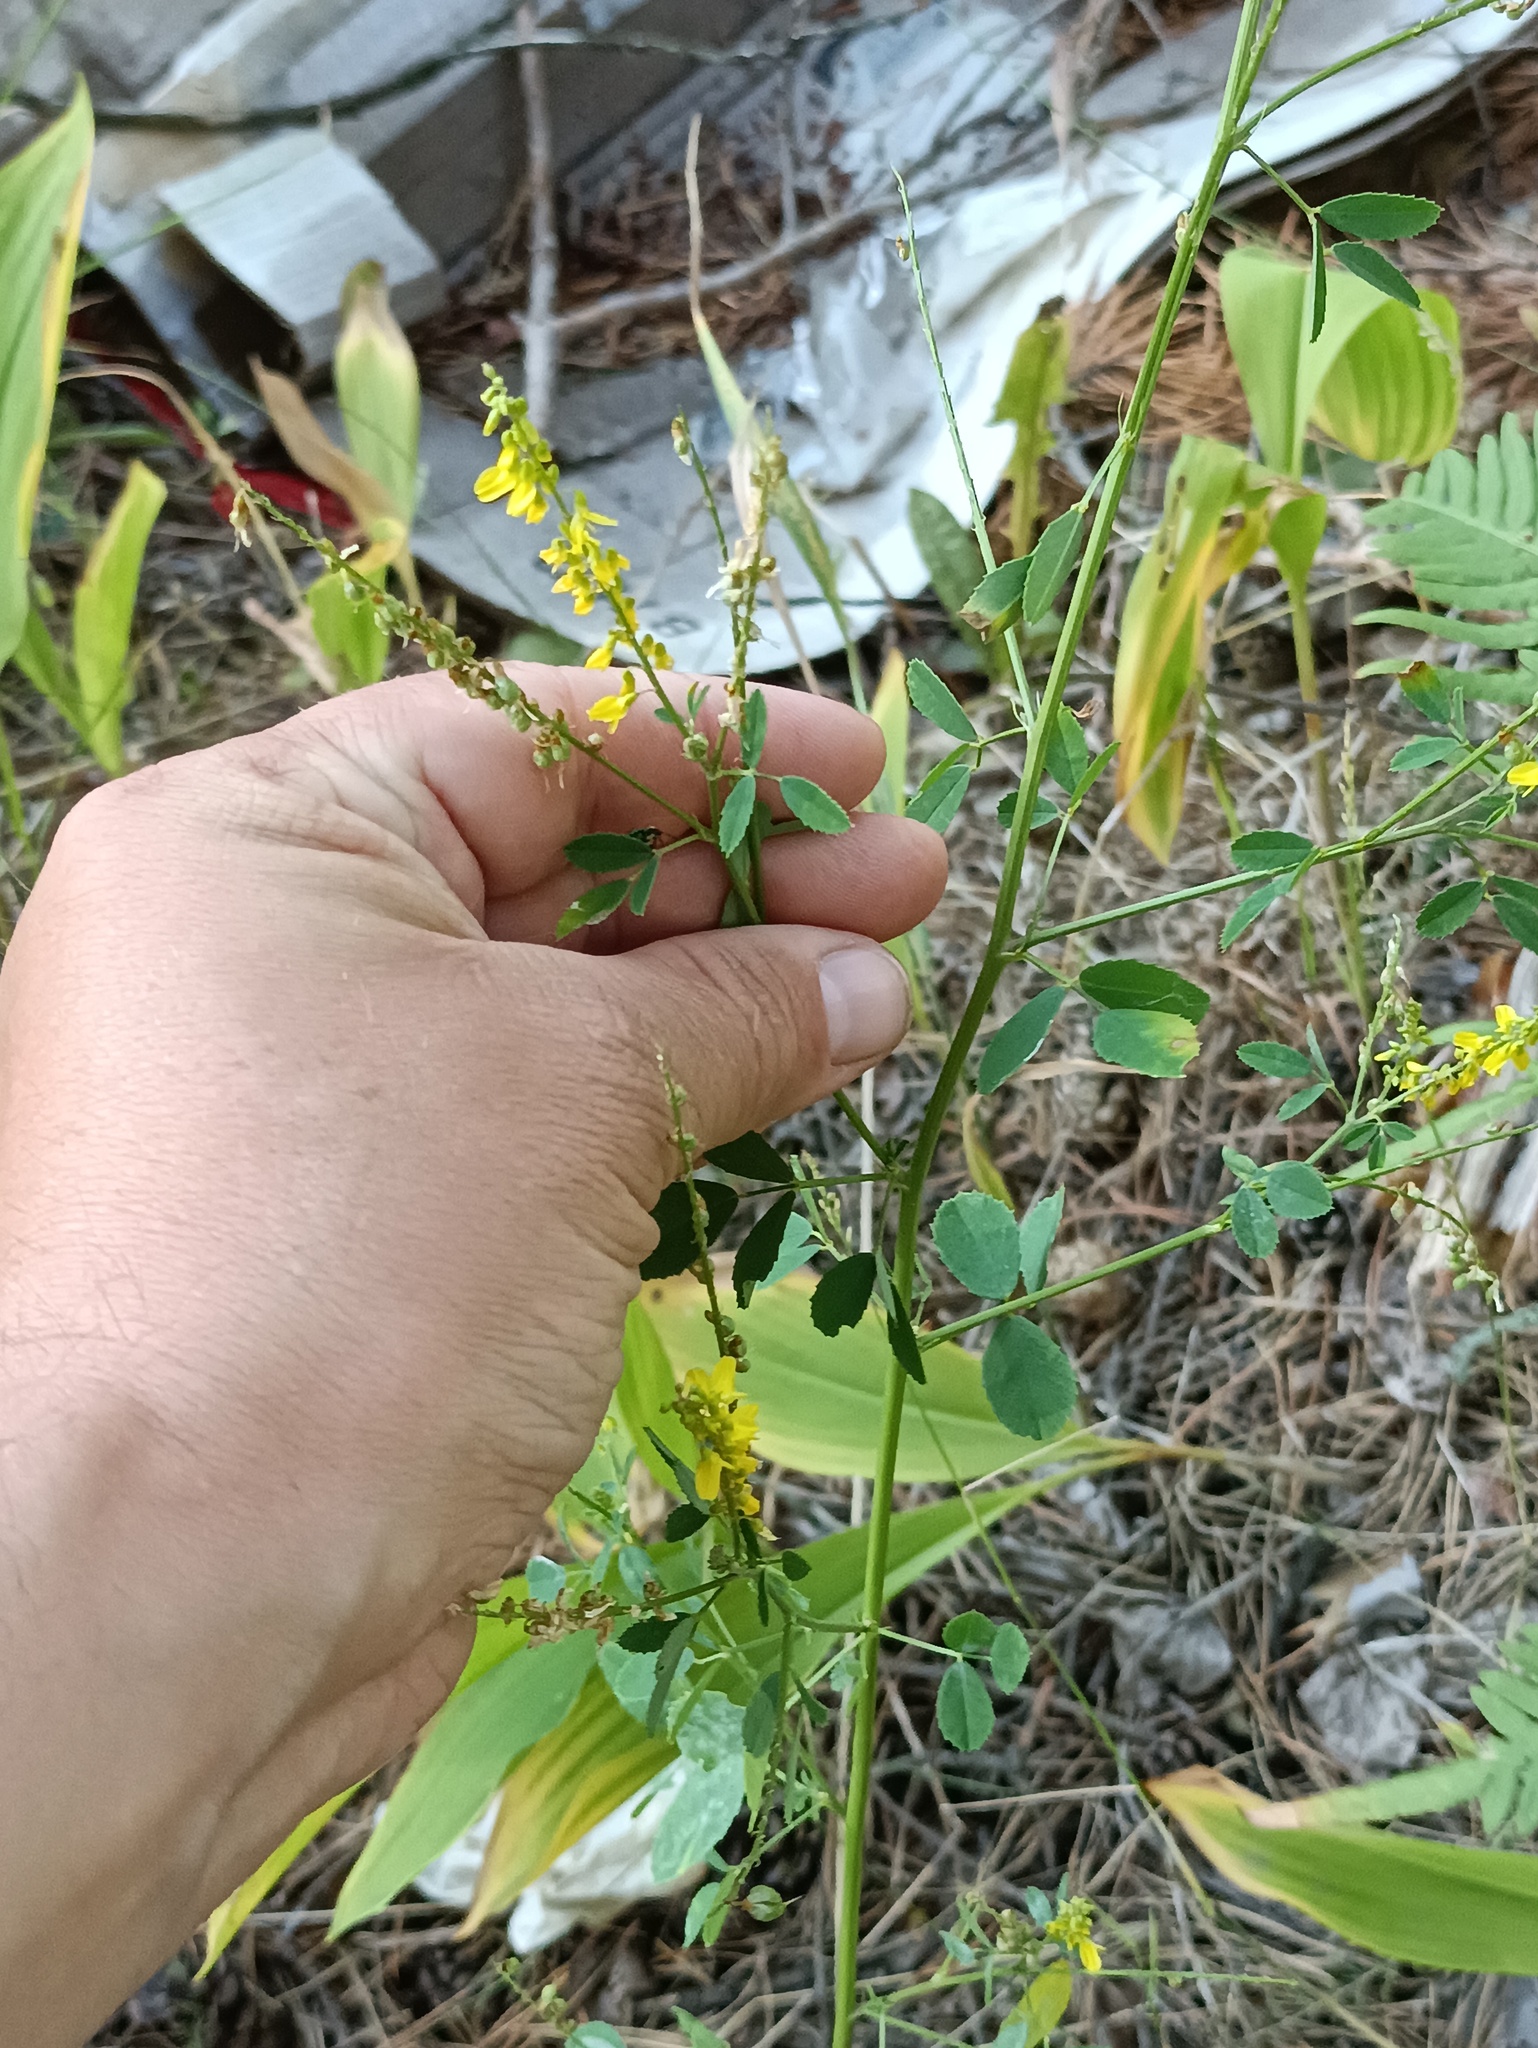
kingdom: Plantae
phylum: Tracheophyta
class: Magnoliopsida
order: Fabales
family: Fabaceae
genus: Melilotus
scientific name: Melilotus officinalis
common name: Sweetclover
